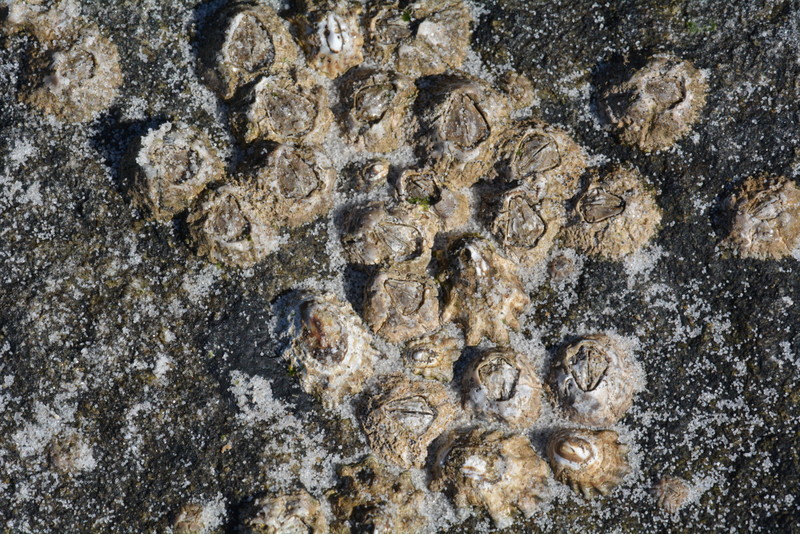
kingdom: Animalia
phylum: Arthropoda
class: Maxillopoda
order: Sessilia
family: Chthamalidae
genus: Notochthamalus
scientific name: Notochthamalus scabrosus
